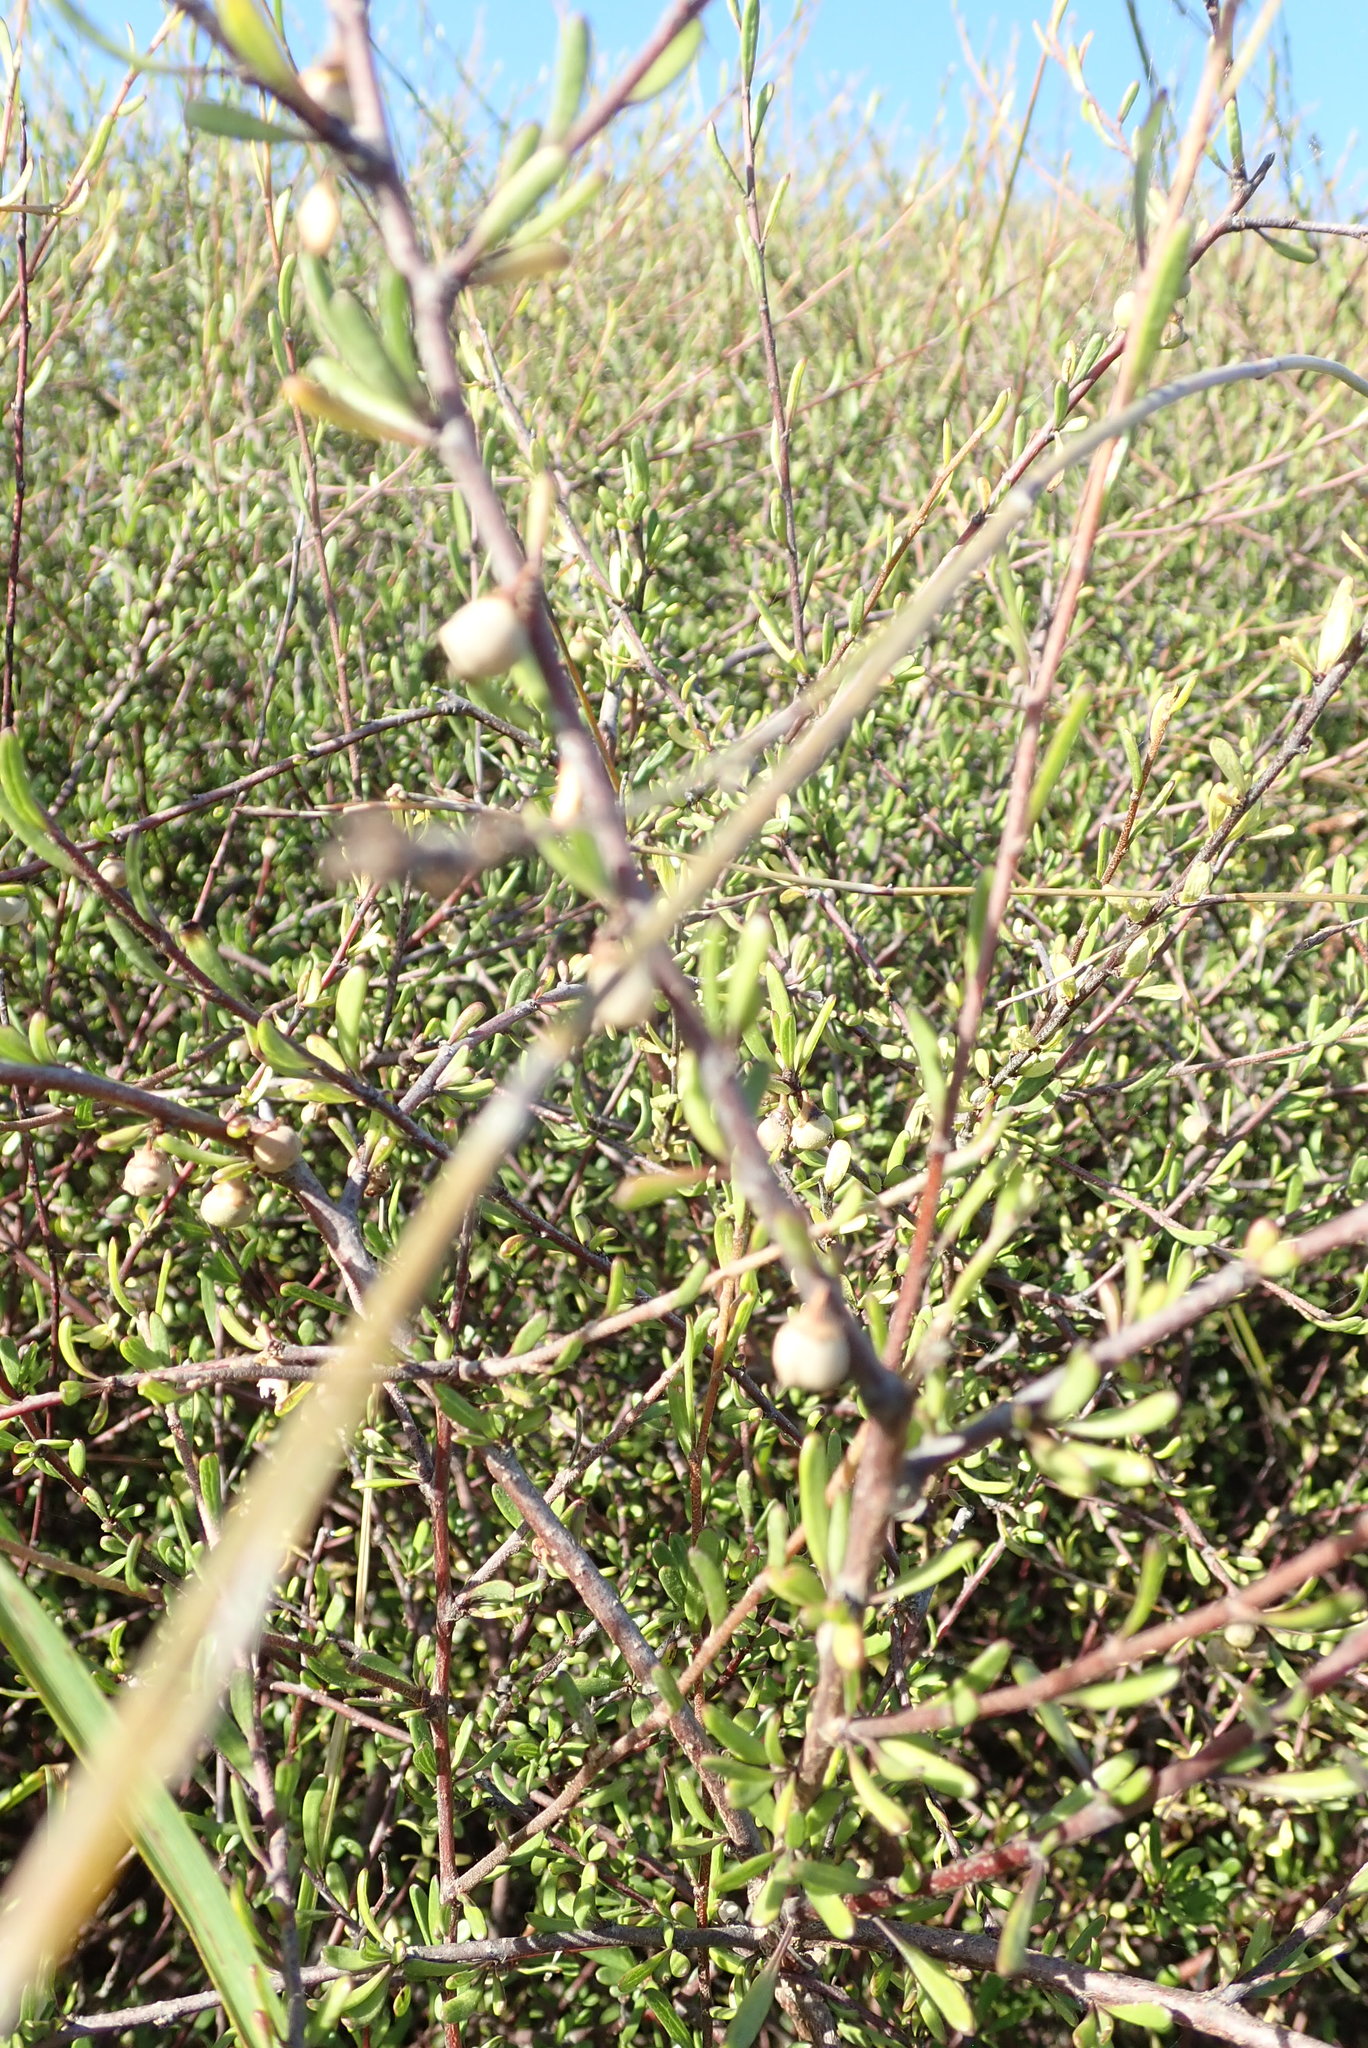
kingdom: Plantae
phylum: Tracheophyta
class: Magnoliopsida
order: Malvales
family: Malvaceae
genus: Plagianthus
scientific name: Plagianthus divaricatus
